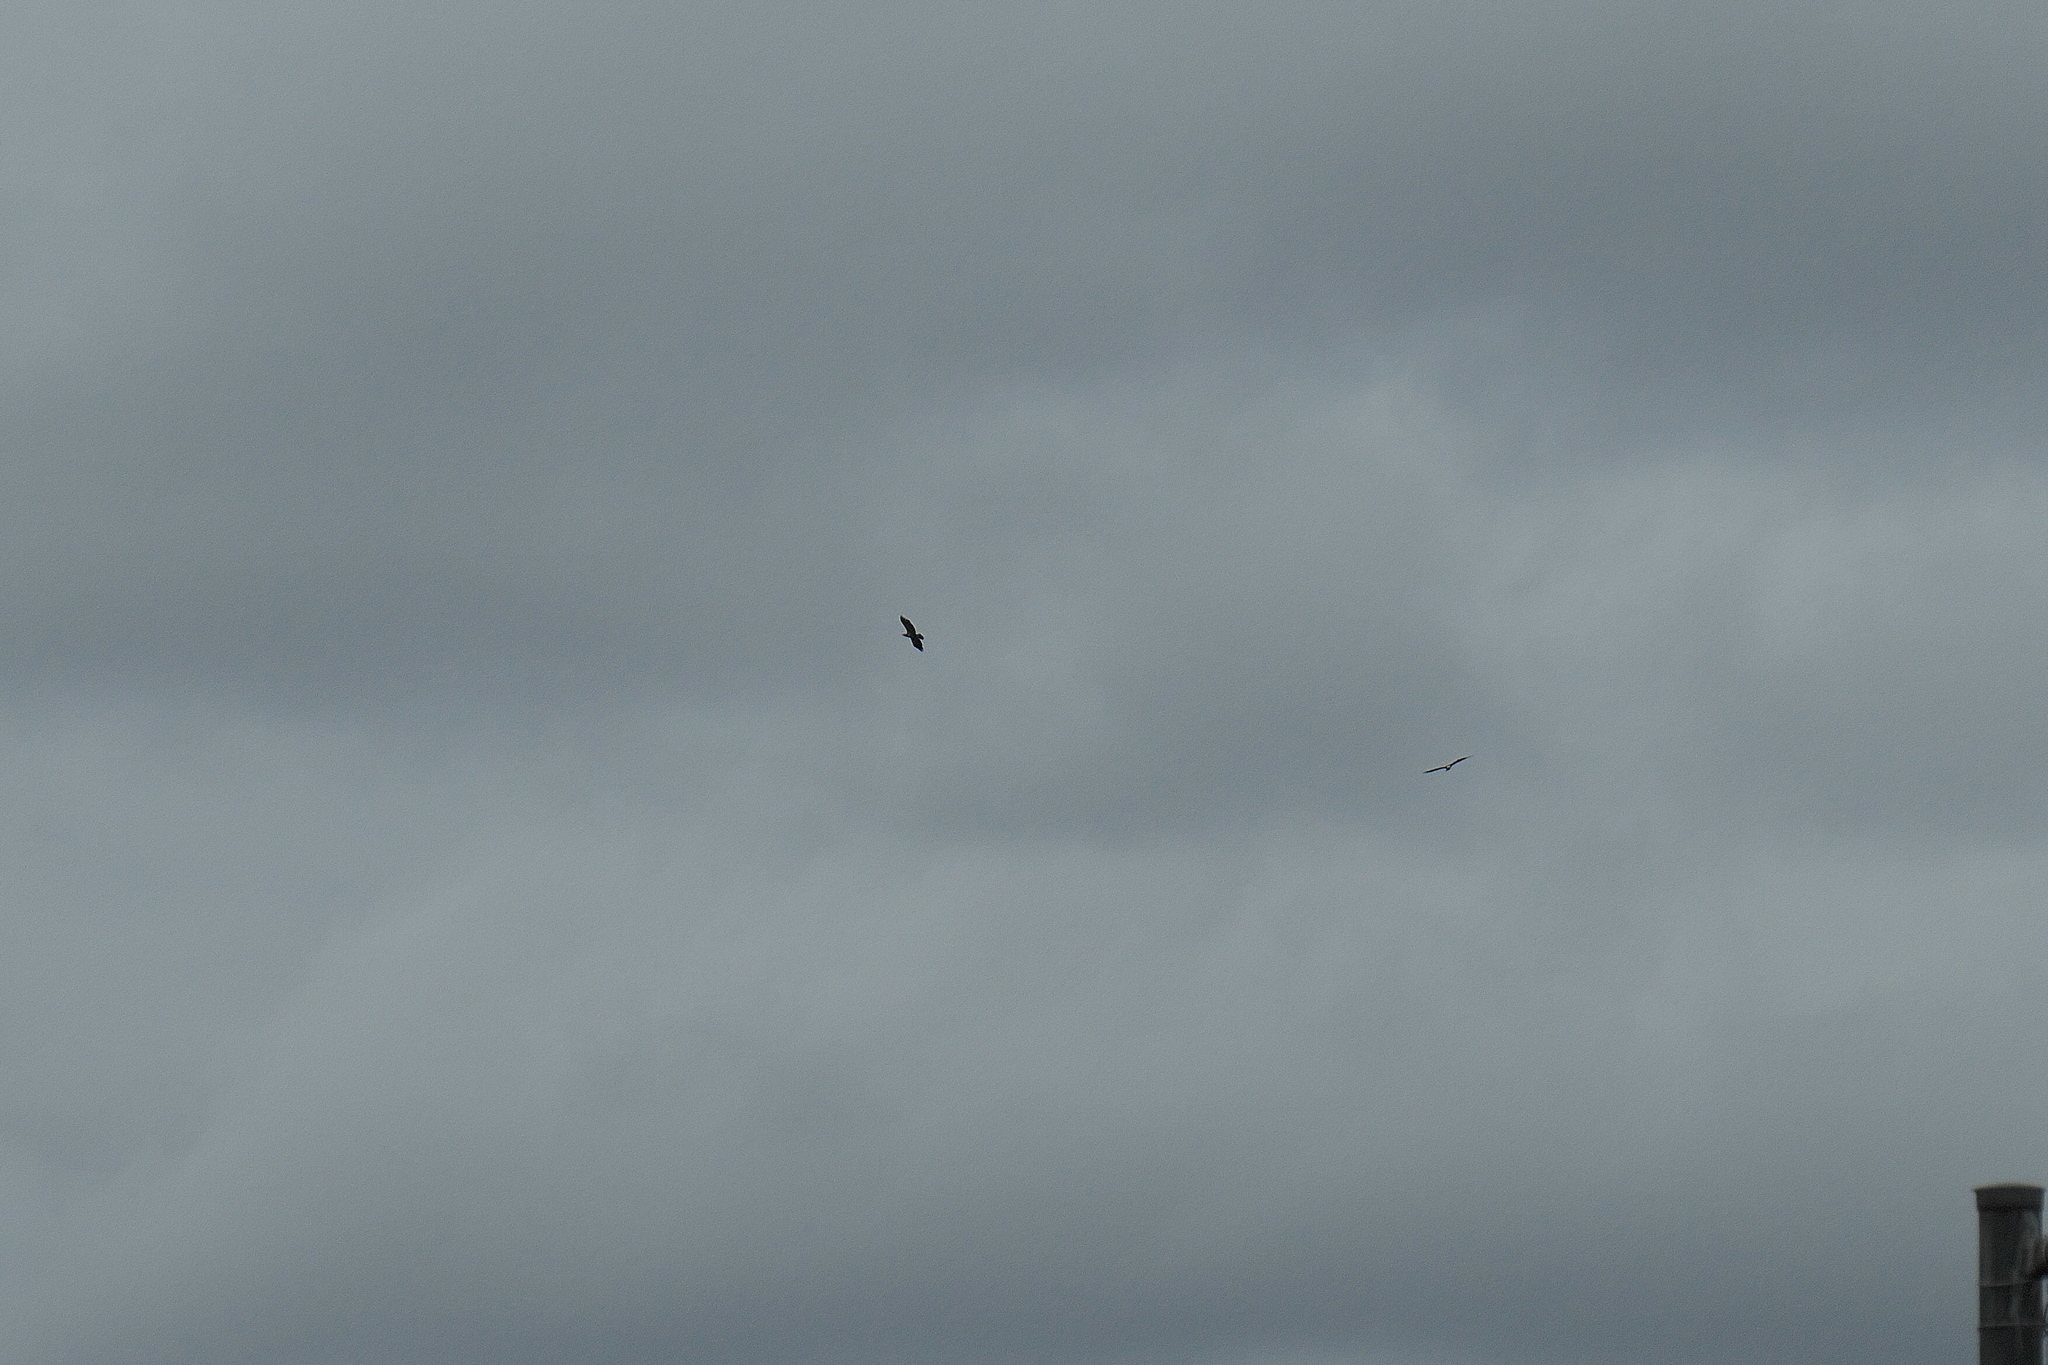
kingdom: Animalia
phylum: Chordata
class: Aves
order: Accipitriformes
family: Accipitridae
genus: Haliaeetus
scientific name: Haliaeetus leucocephalus
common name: Bald eagle
